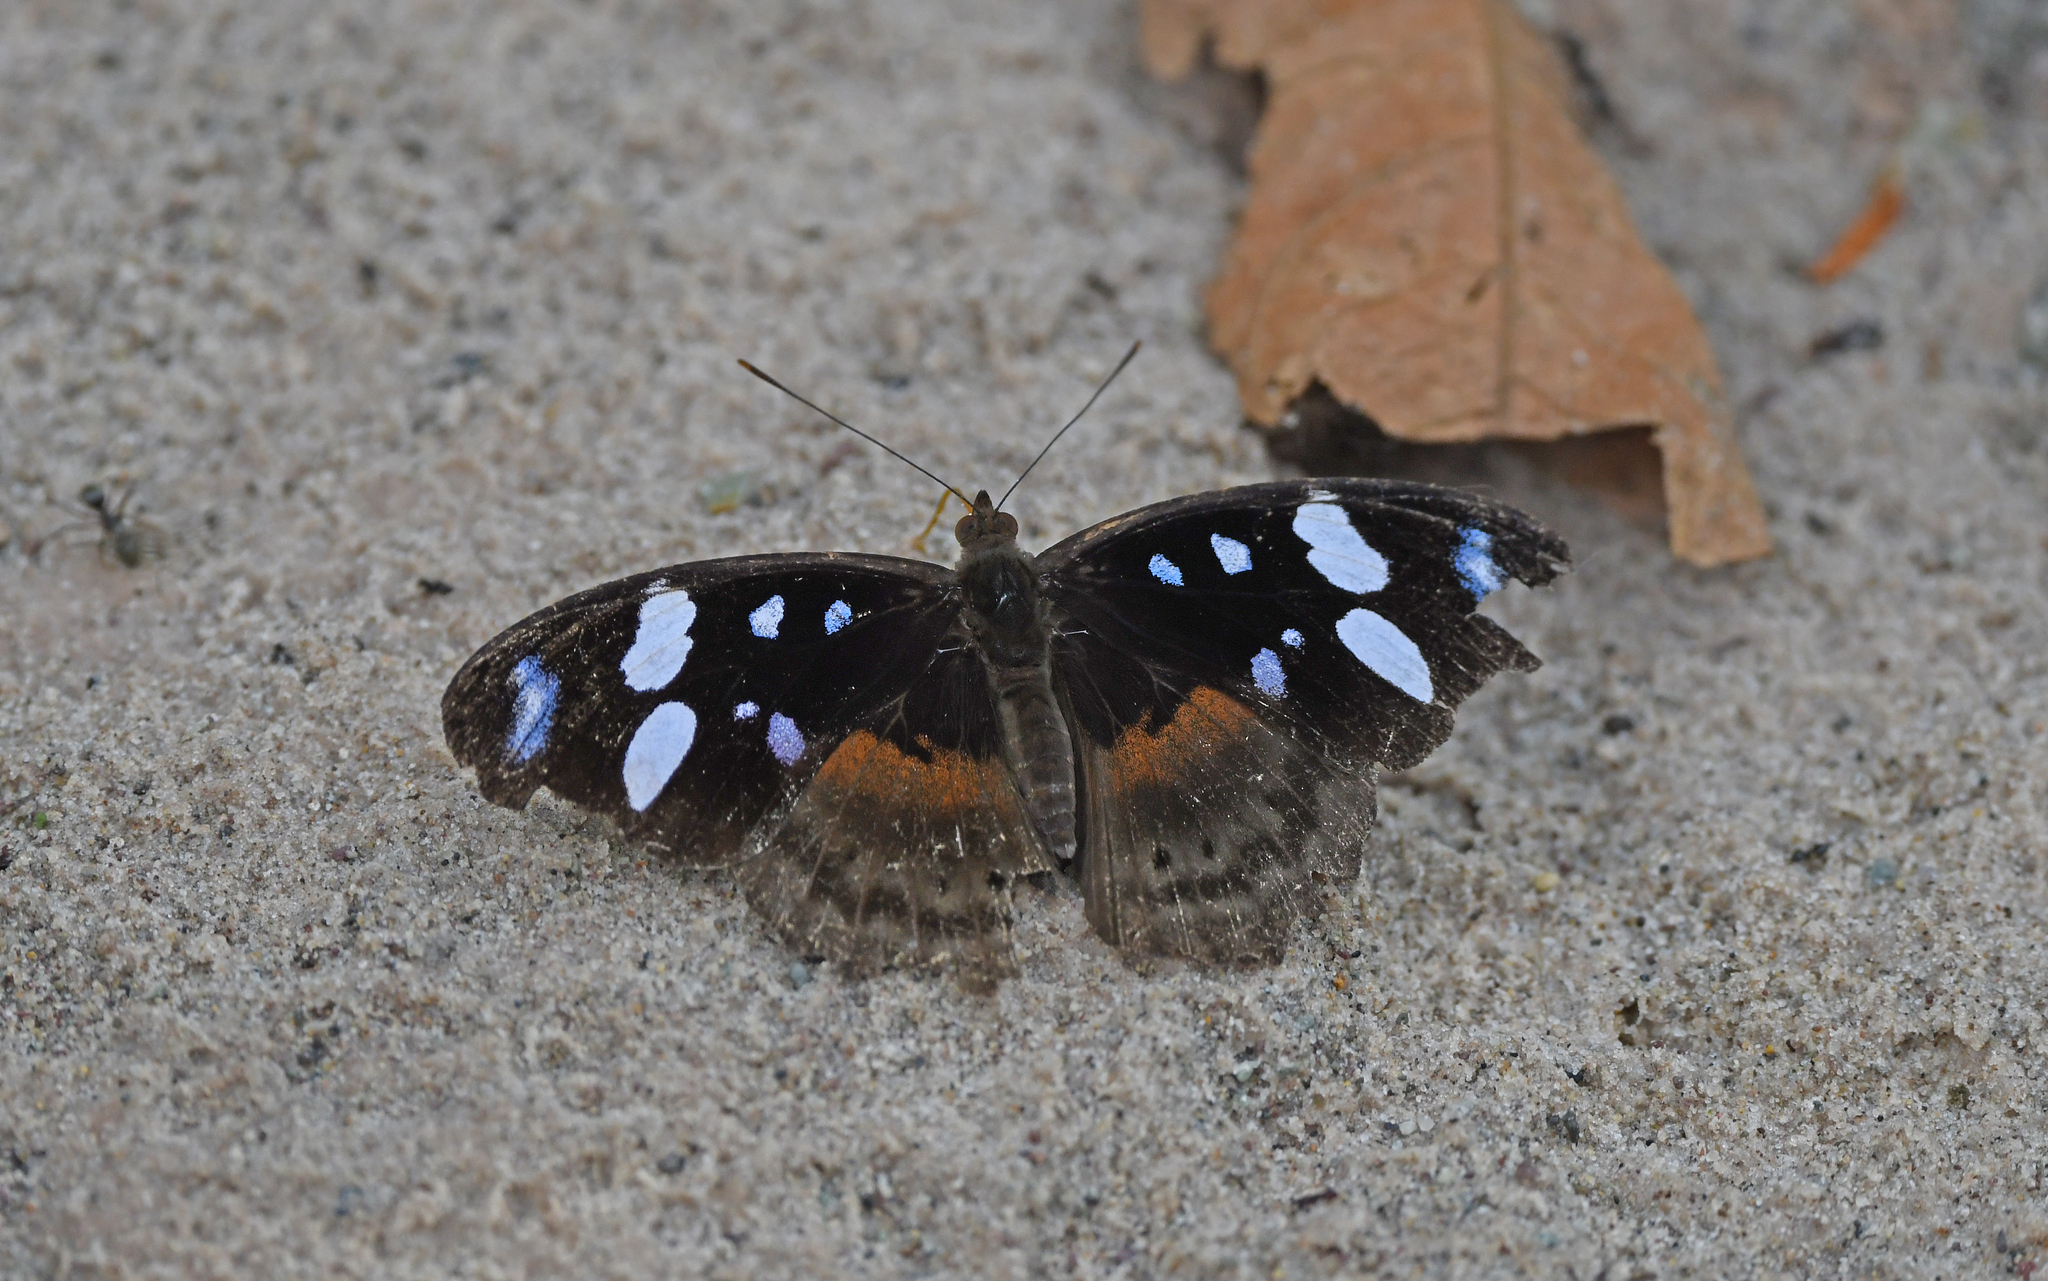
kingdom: Animalia
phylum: Arthropoda
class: Insecta
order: Lepidoptera
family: Nymphalidae
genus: Myscelia
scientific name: Myscelia capenas
